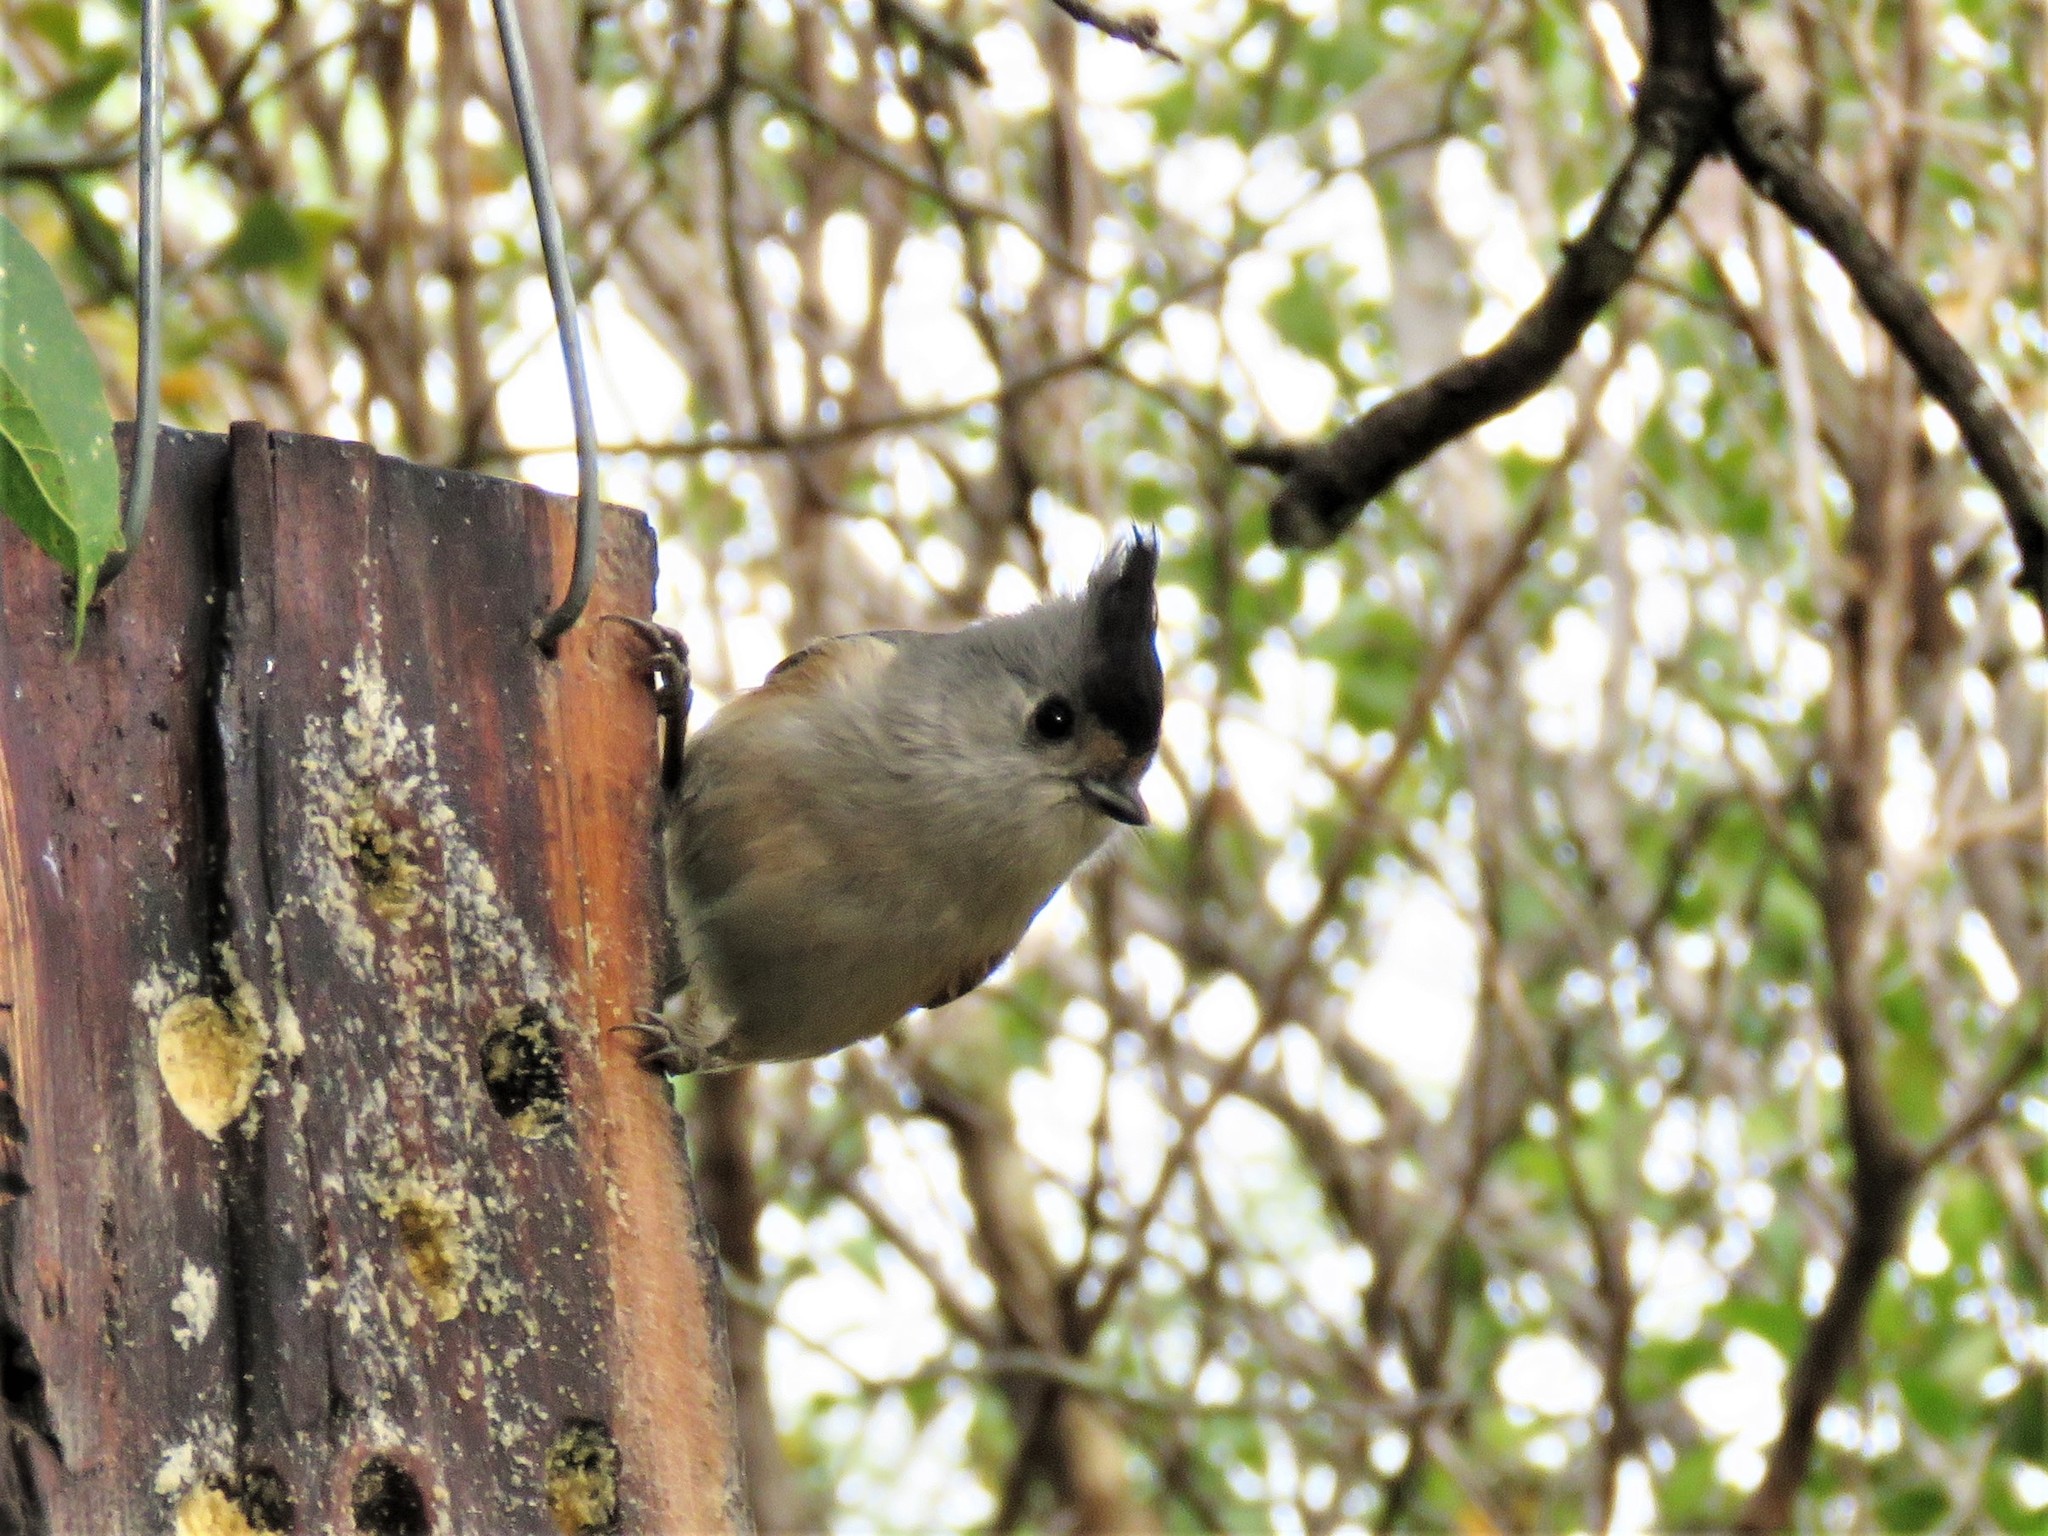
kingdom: Animalia
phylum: Chordata
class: Aves
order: Passeriformes
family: Paridae
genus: Baeolophus
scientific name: Baeolophus atricristatus
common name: Black-crested titmouse
